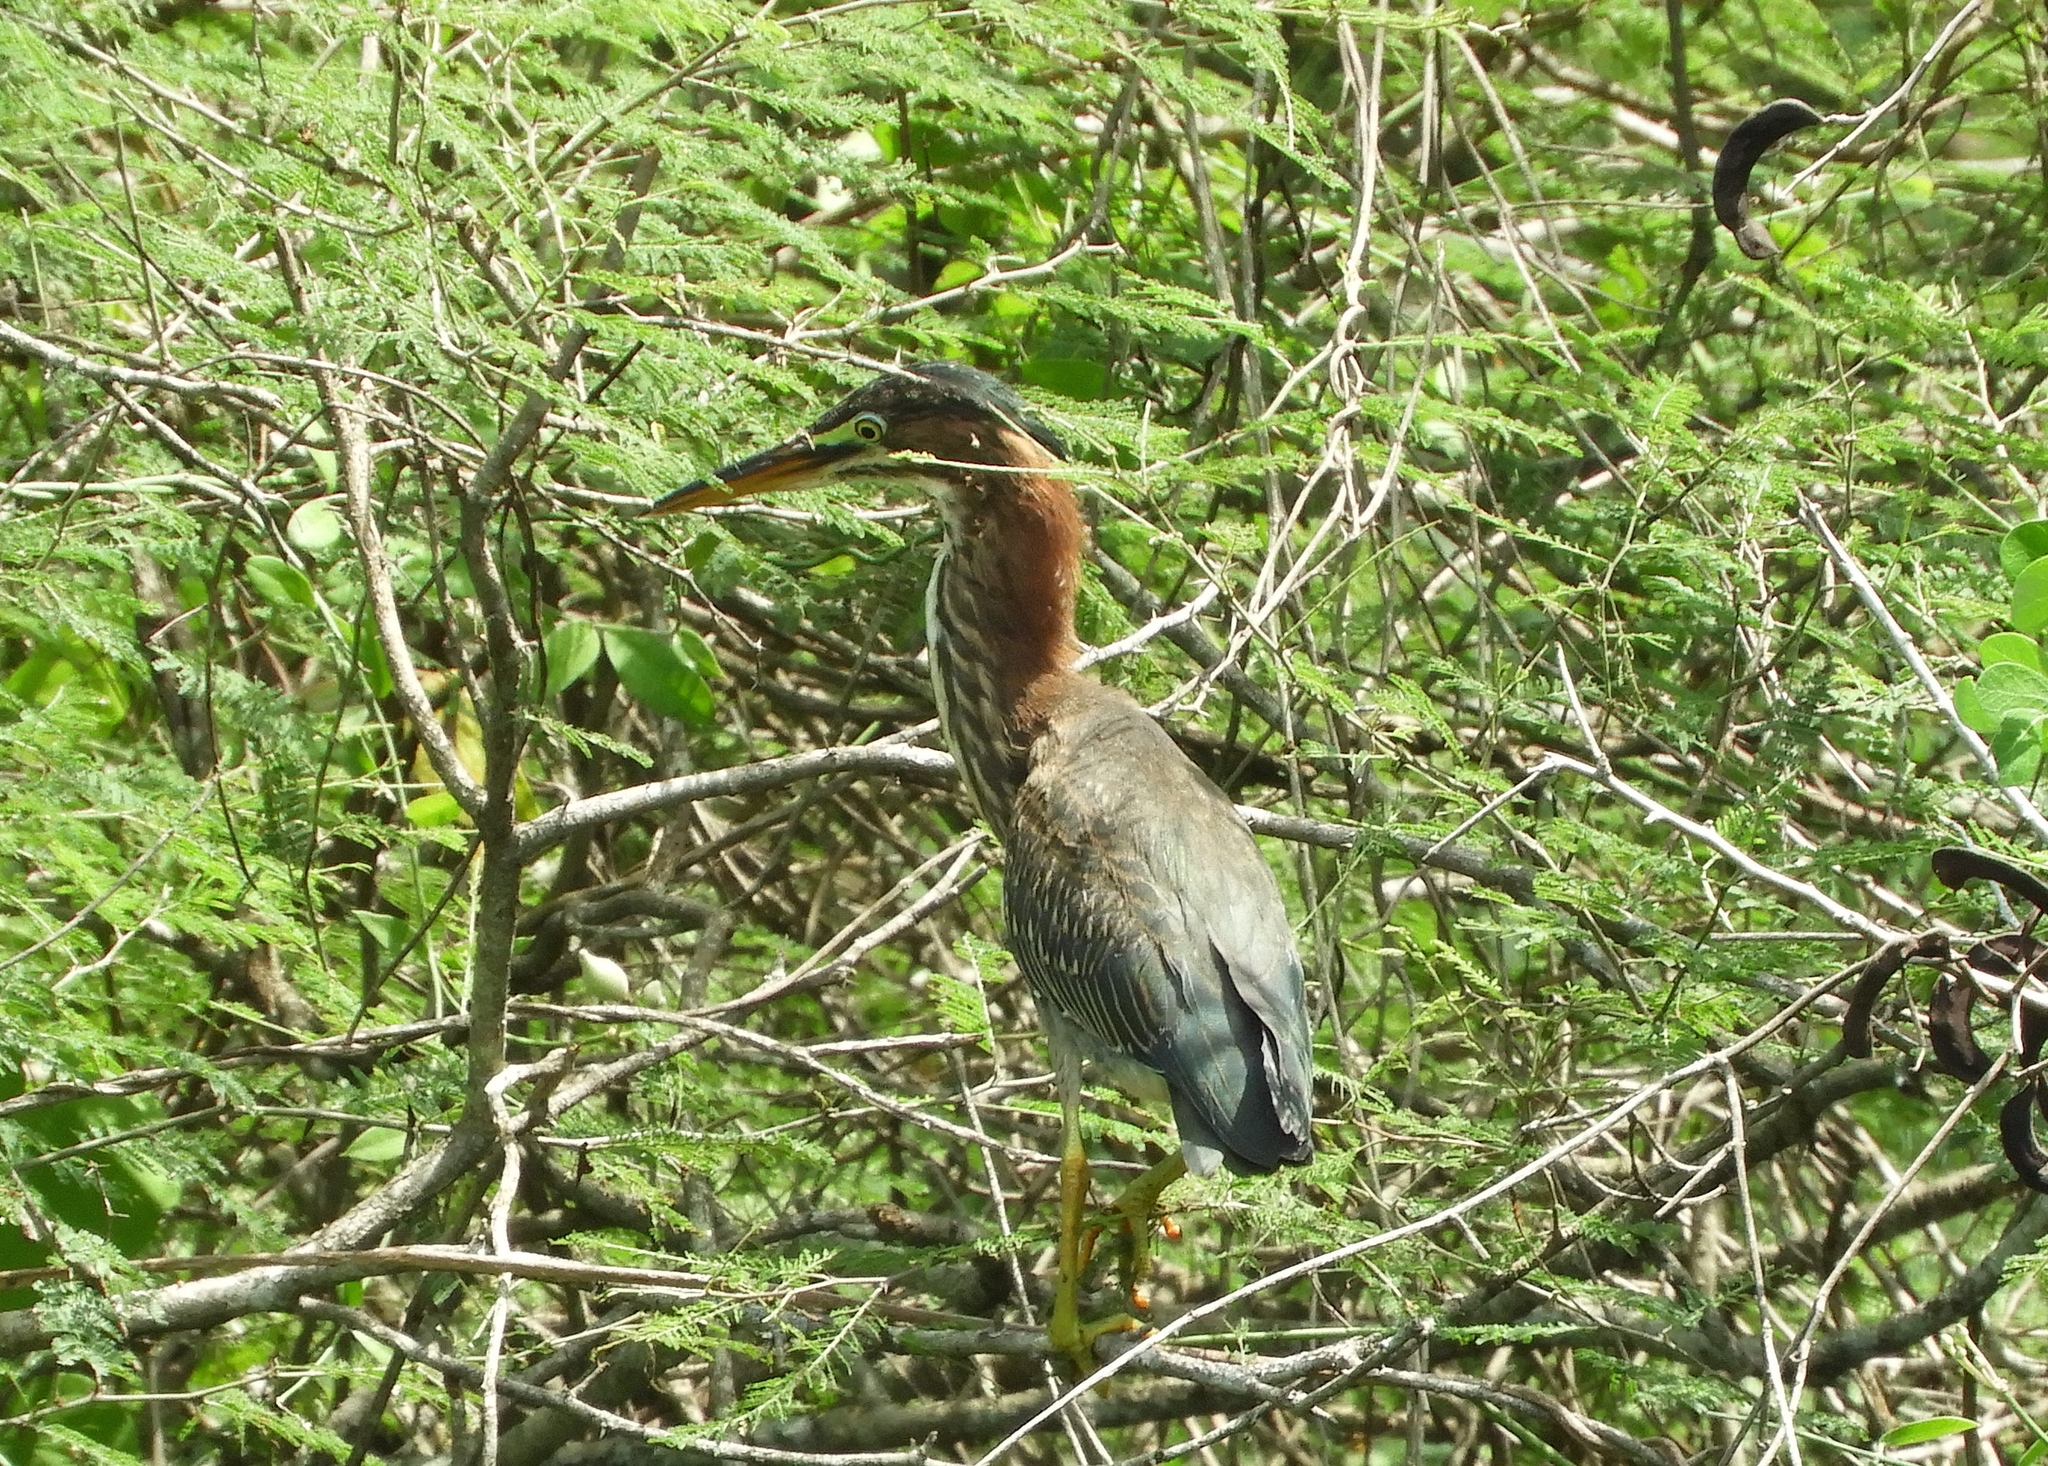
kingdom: Animalia
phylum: Chordata
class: Aves
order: Pelecaniformes
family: Ardeidae
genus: Butorides
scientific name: Butorides virescens
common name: Green heron
